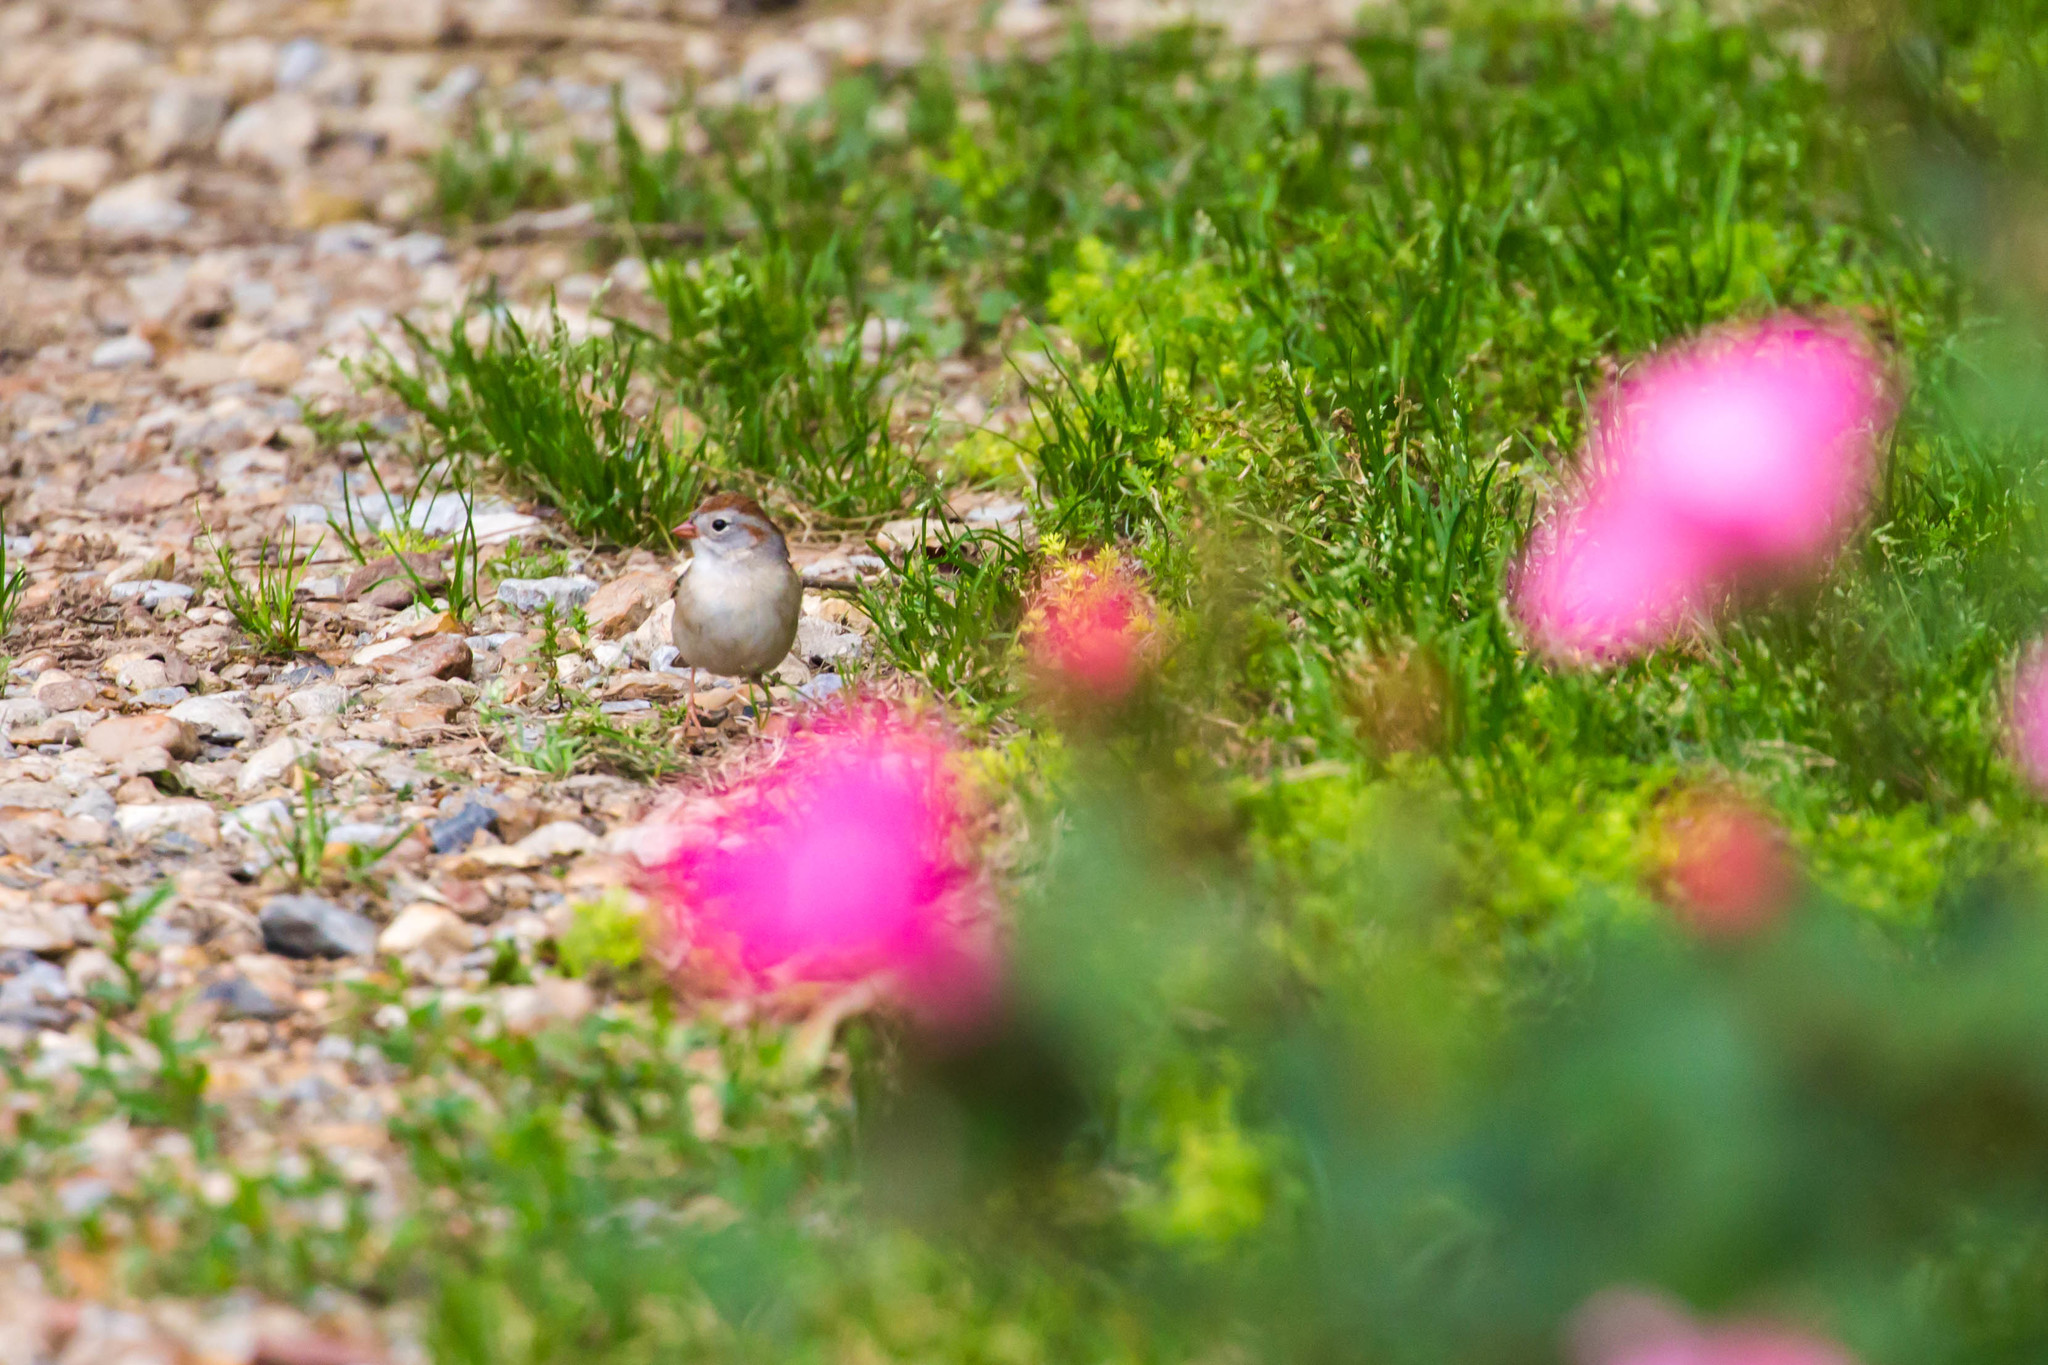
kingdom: Animalia
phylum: Chordata
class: Aves
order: Passeriformes
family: Passerellidae
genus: Spizella
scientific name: Spizella pusilla
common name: Field sparrow
